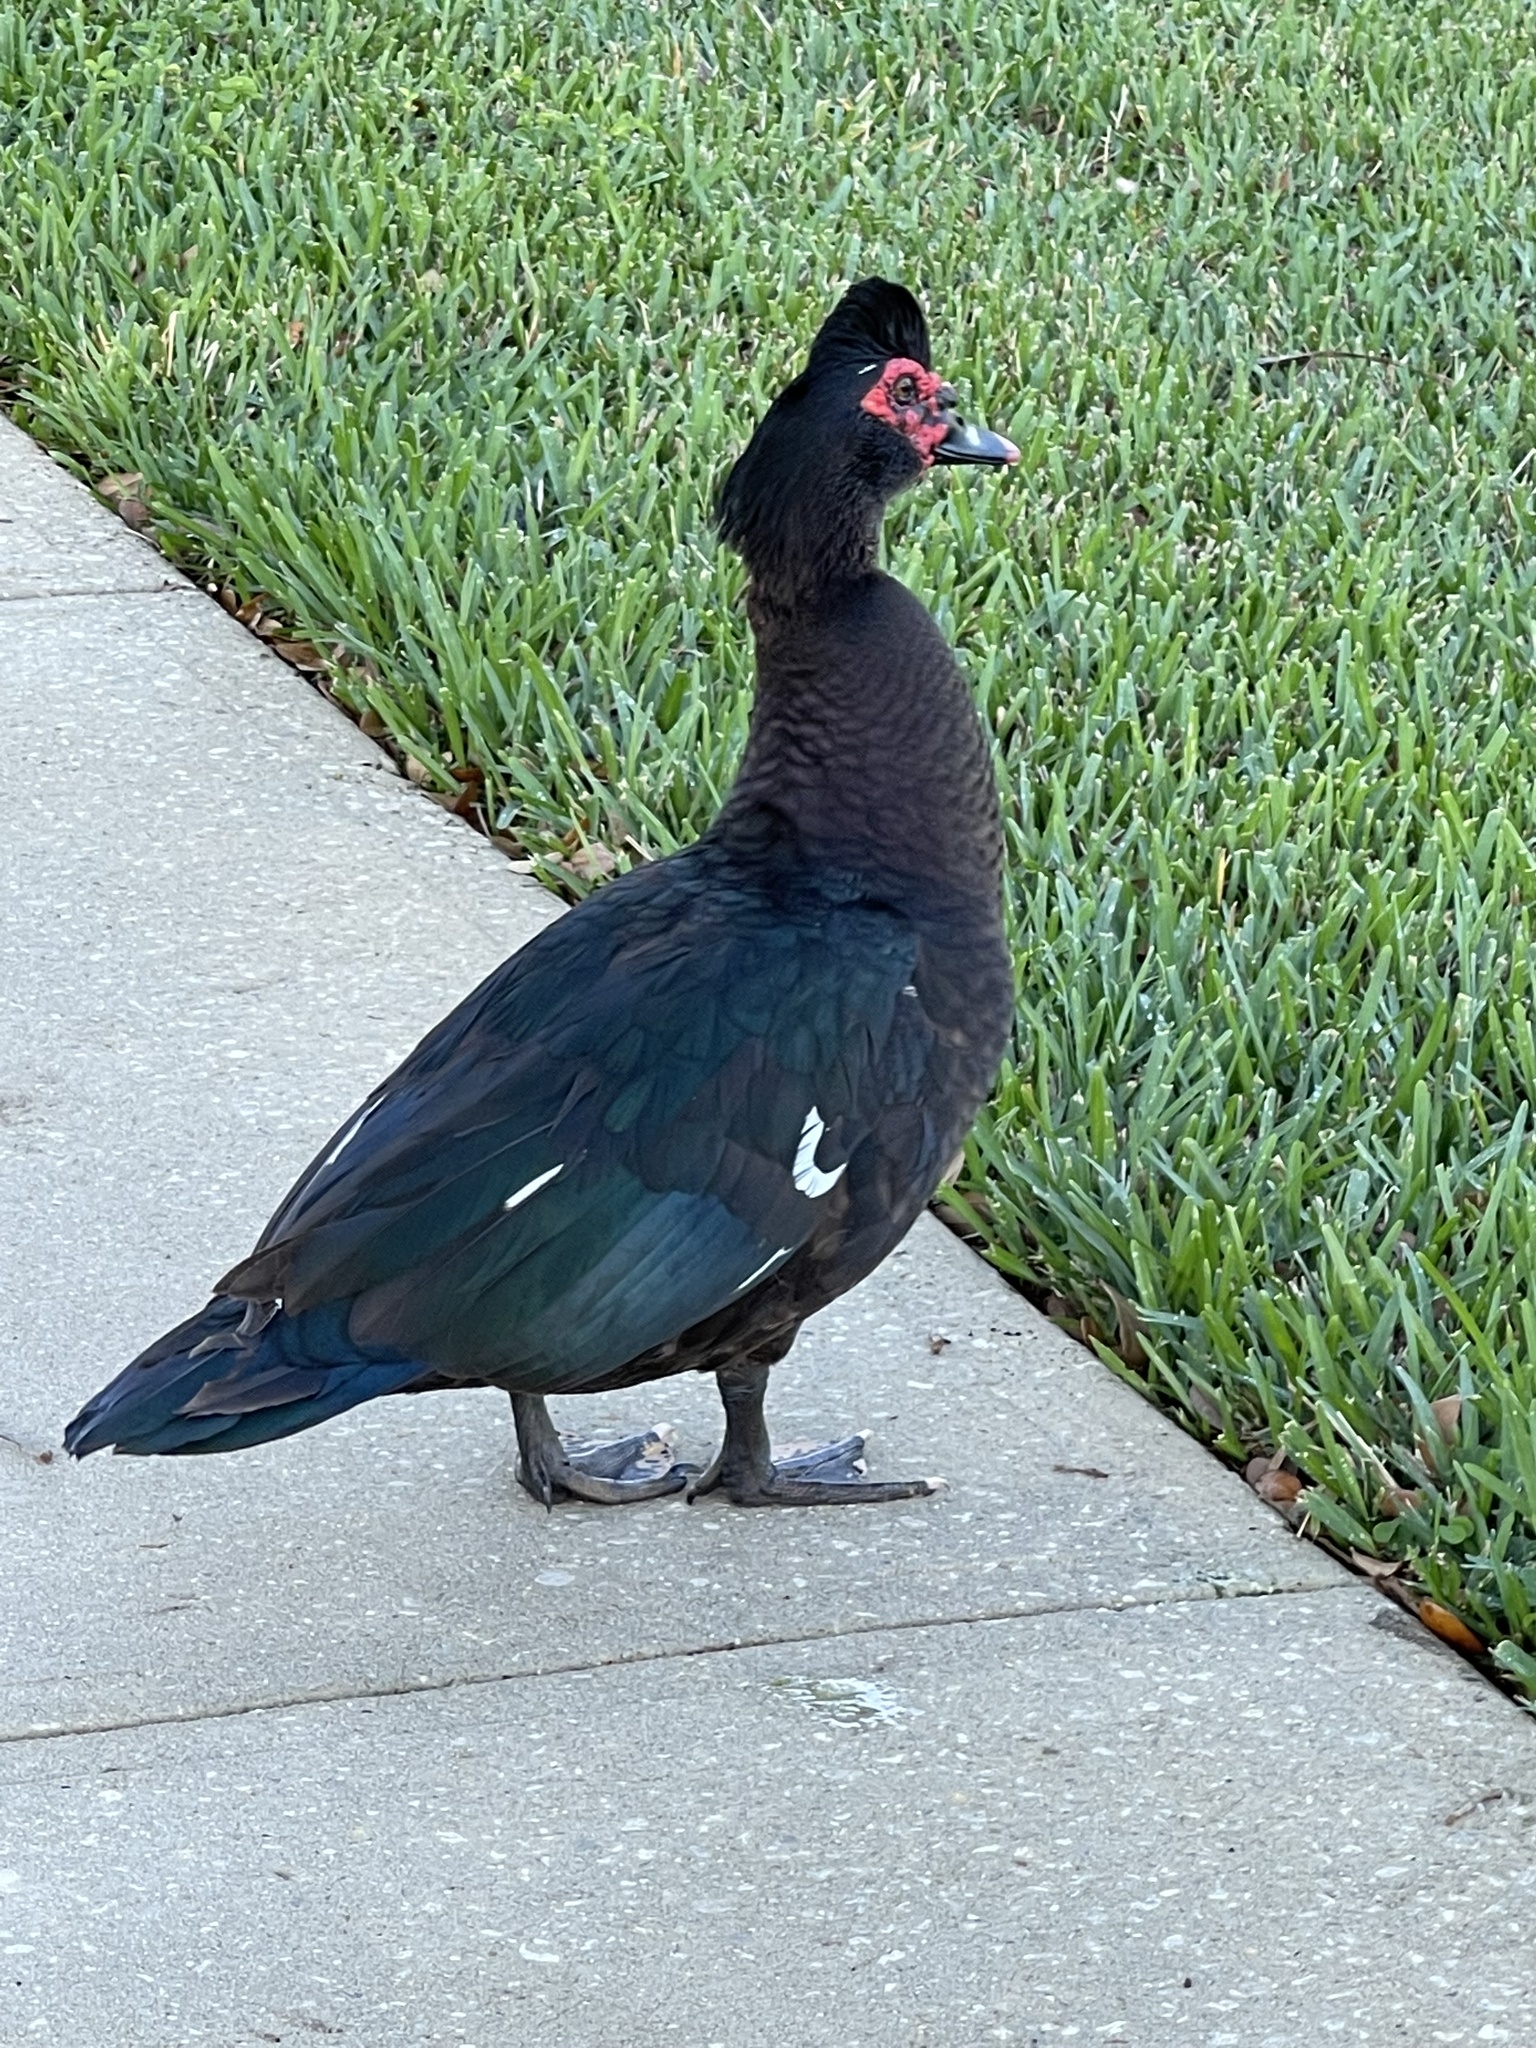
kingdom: Animalia
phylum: Chordata
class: Aves
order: Anseriformes
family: Anatidae
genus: Cairina
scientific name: Cairina moschata
